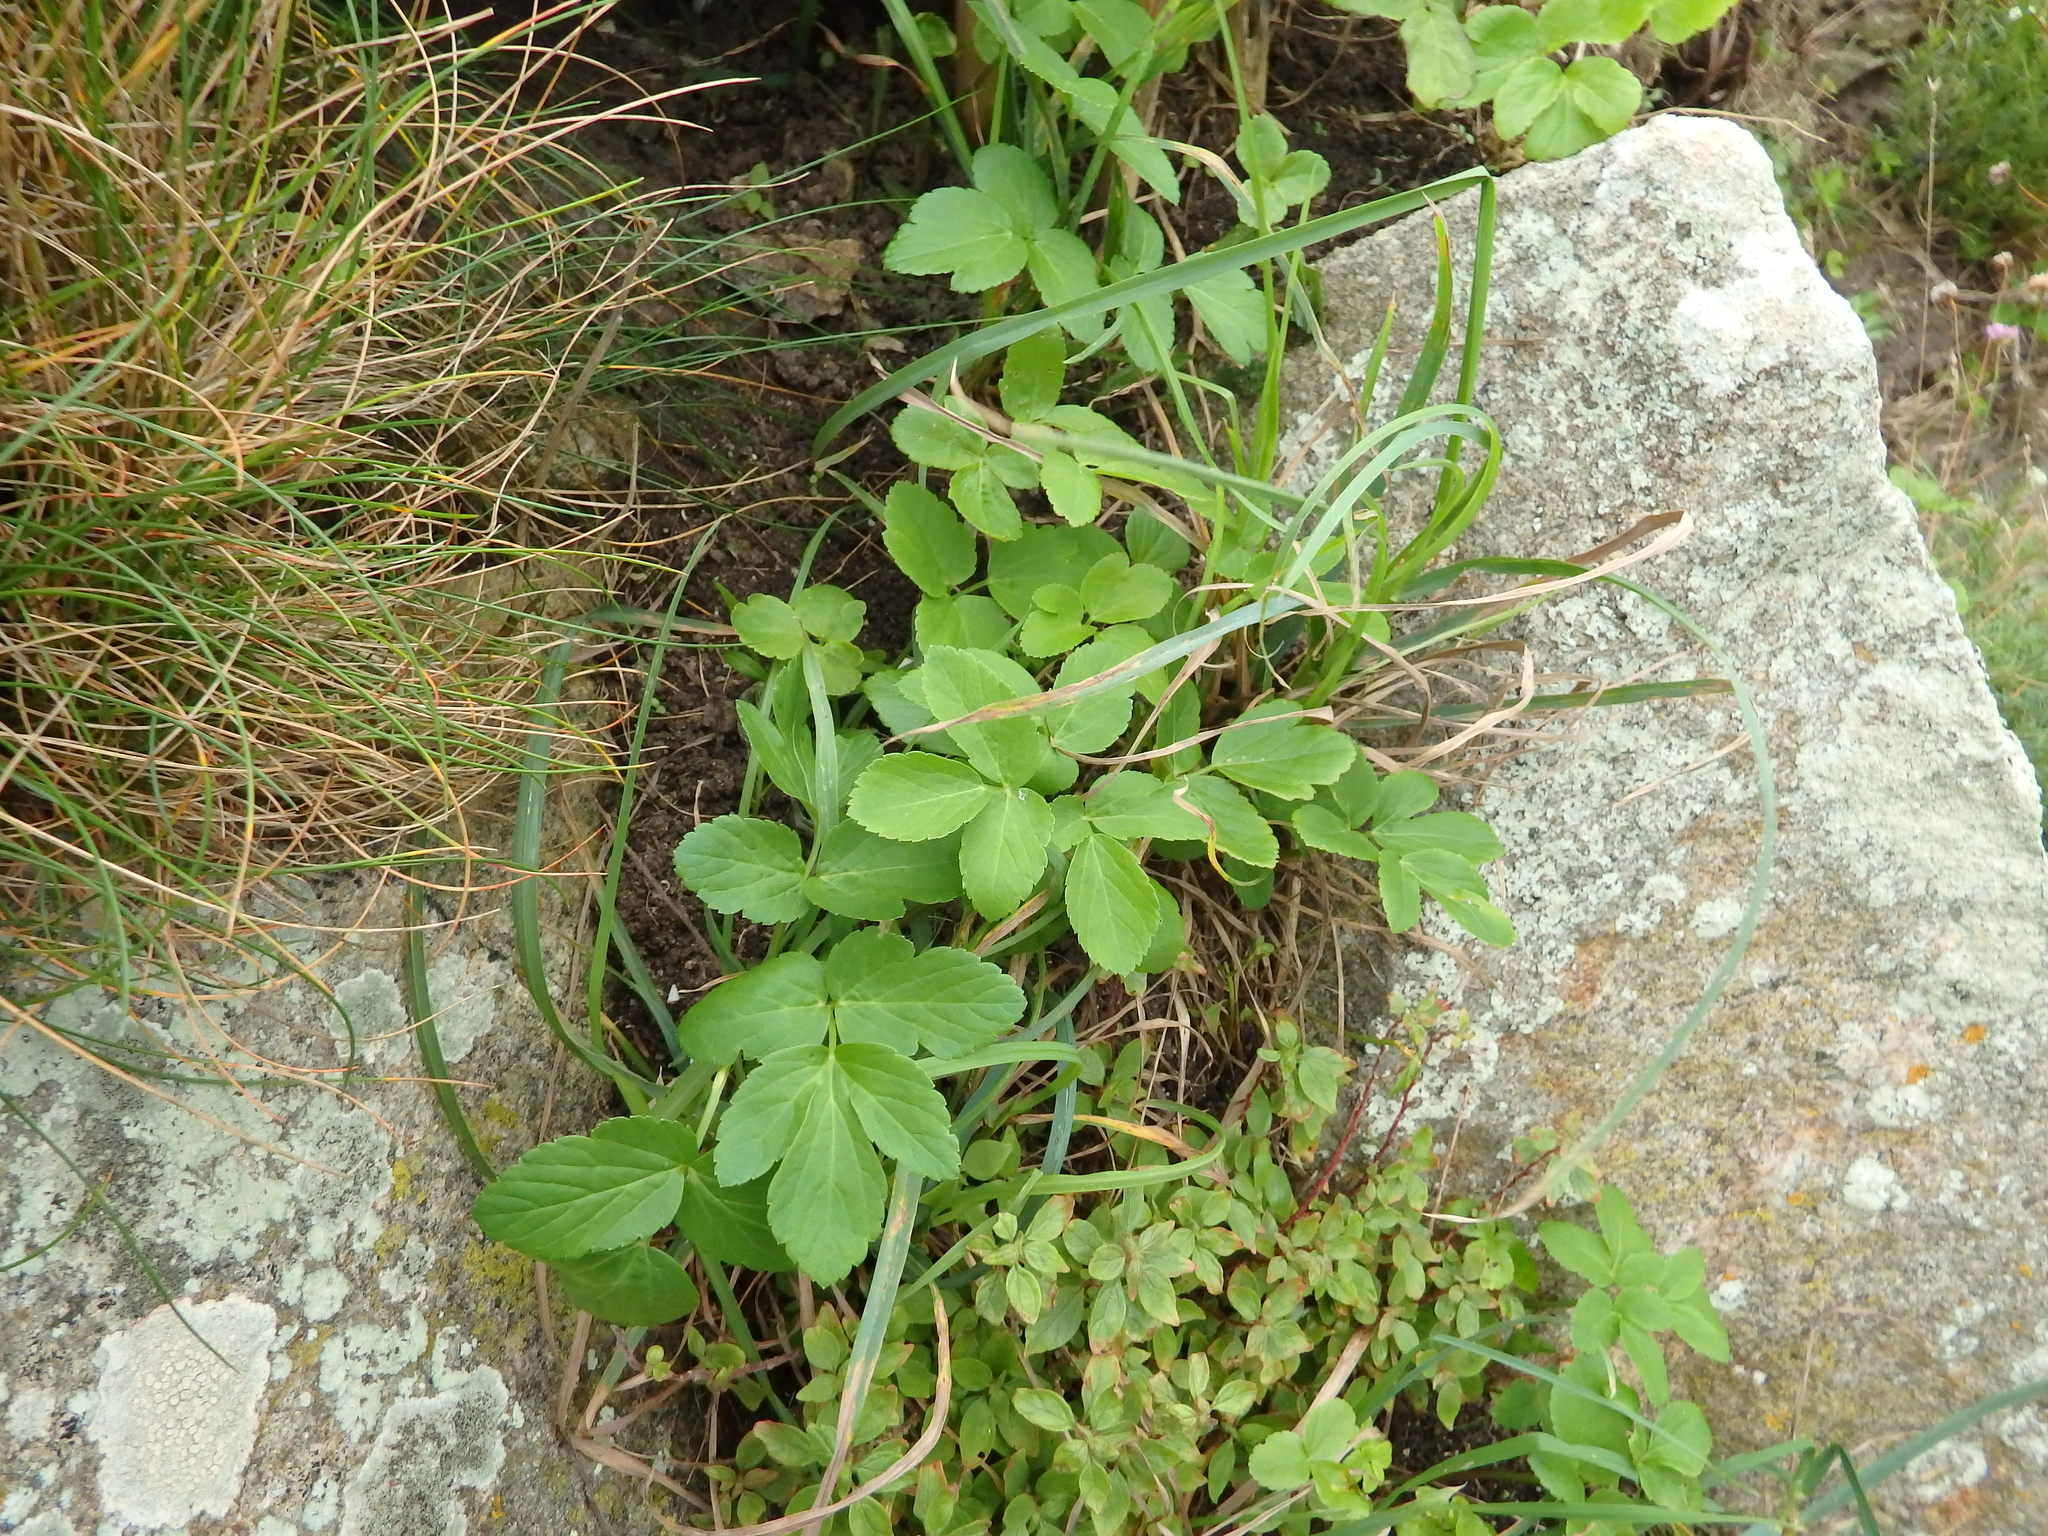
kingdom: Plantae
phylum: Tracheophyta
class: Magnoliopsida
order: Apiales
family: Apiaceae
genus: Smyrnium
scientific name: Smyrnium olusatrum
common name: Alexanders
